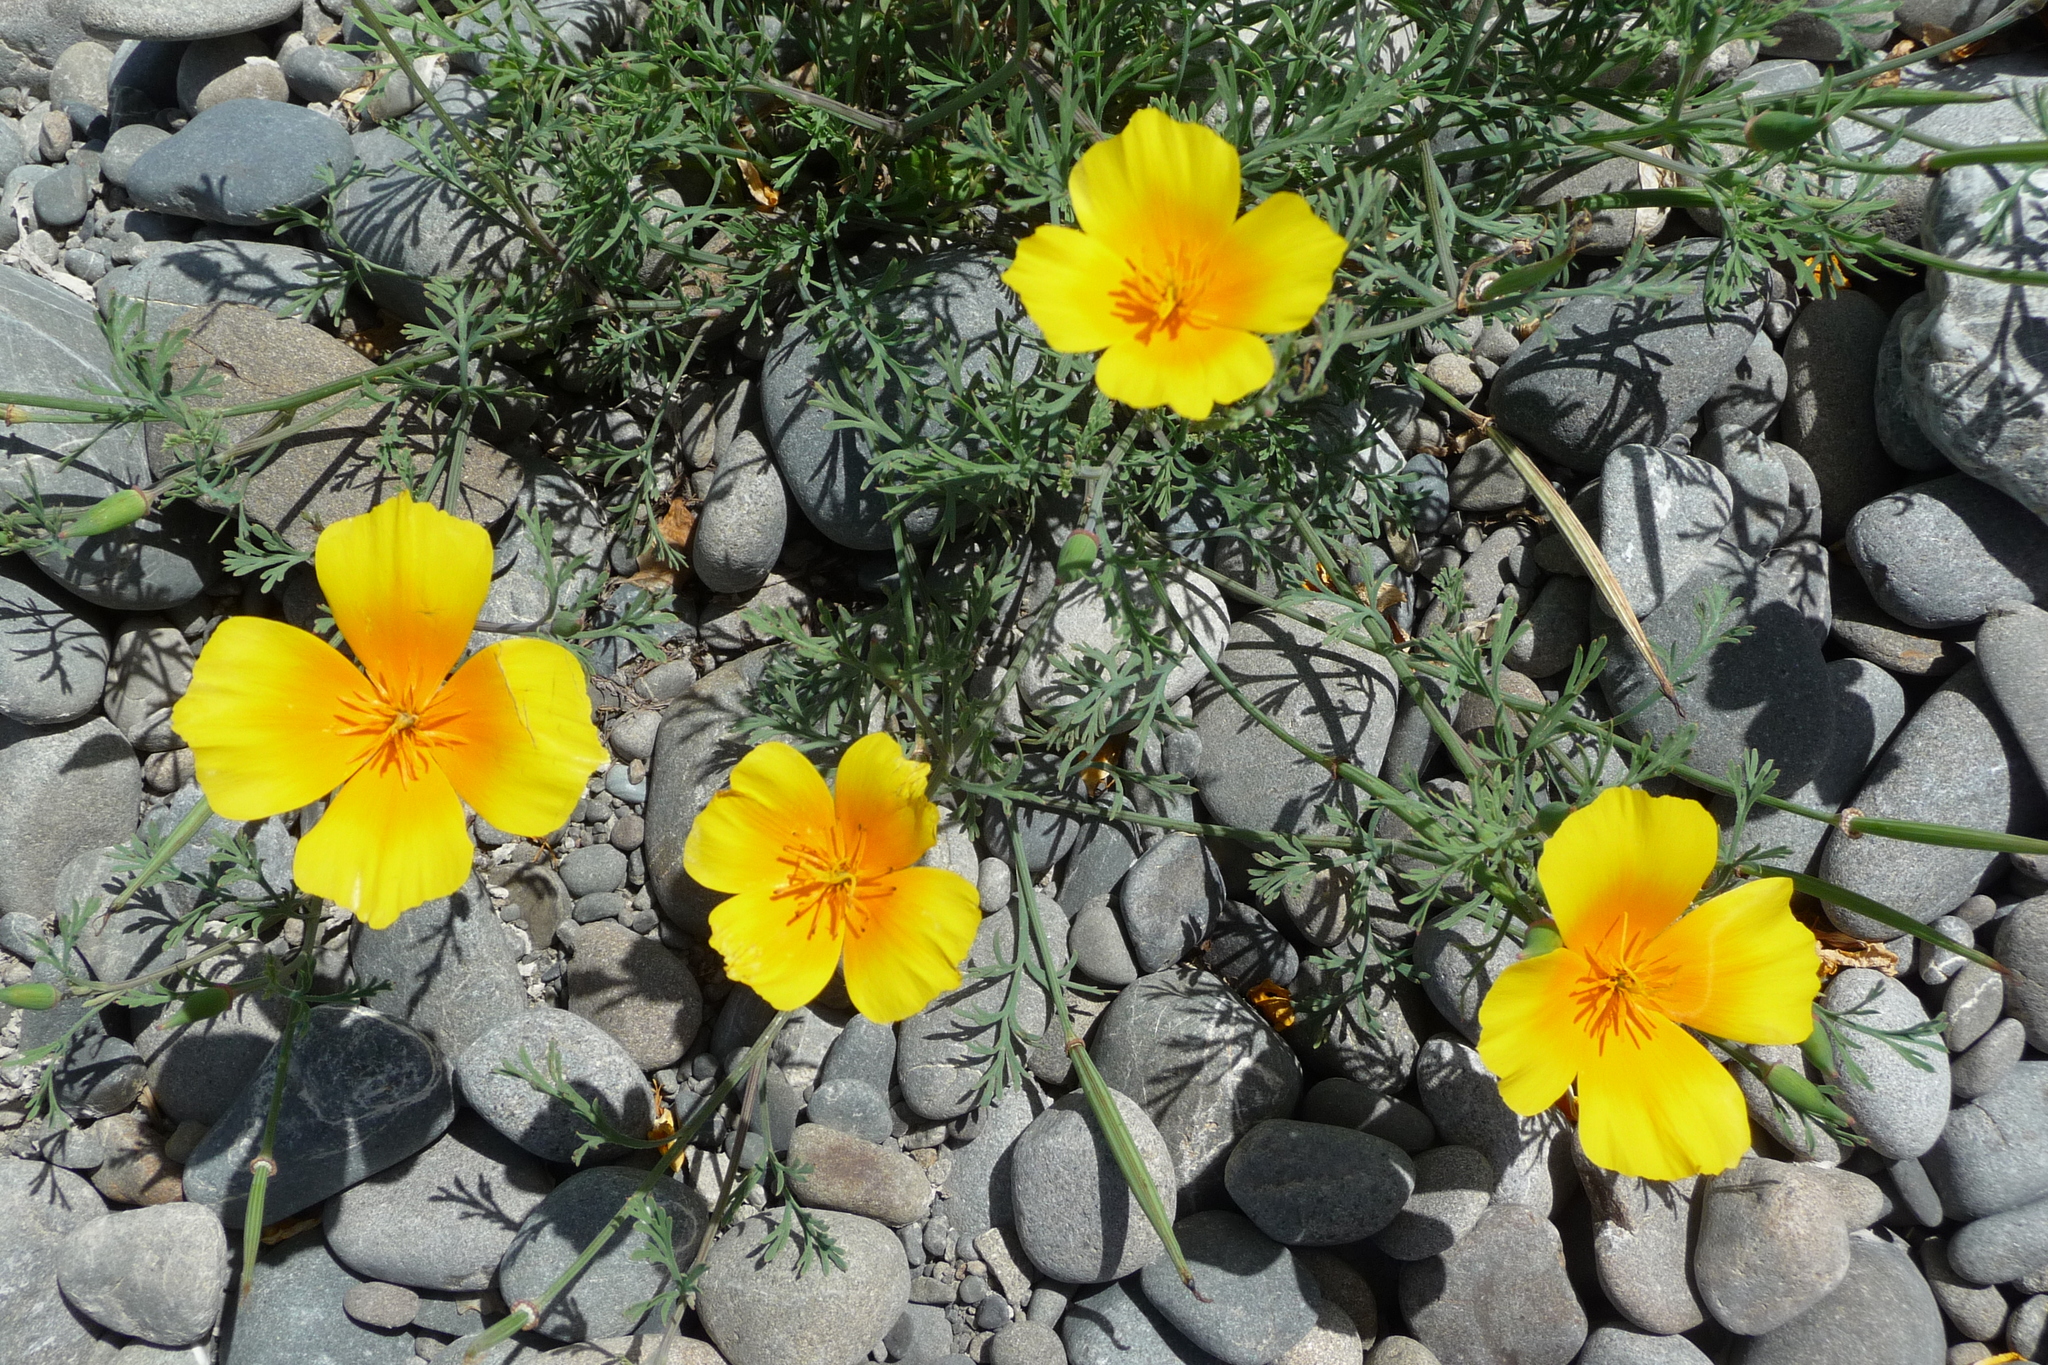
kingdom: Plantae
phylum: Tracheophyta
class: Magnoliopsida
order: Ranunculales
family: Papaveraceae
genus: Eschscholzia
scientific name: Eschscholzia californica
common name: California poppy
